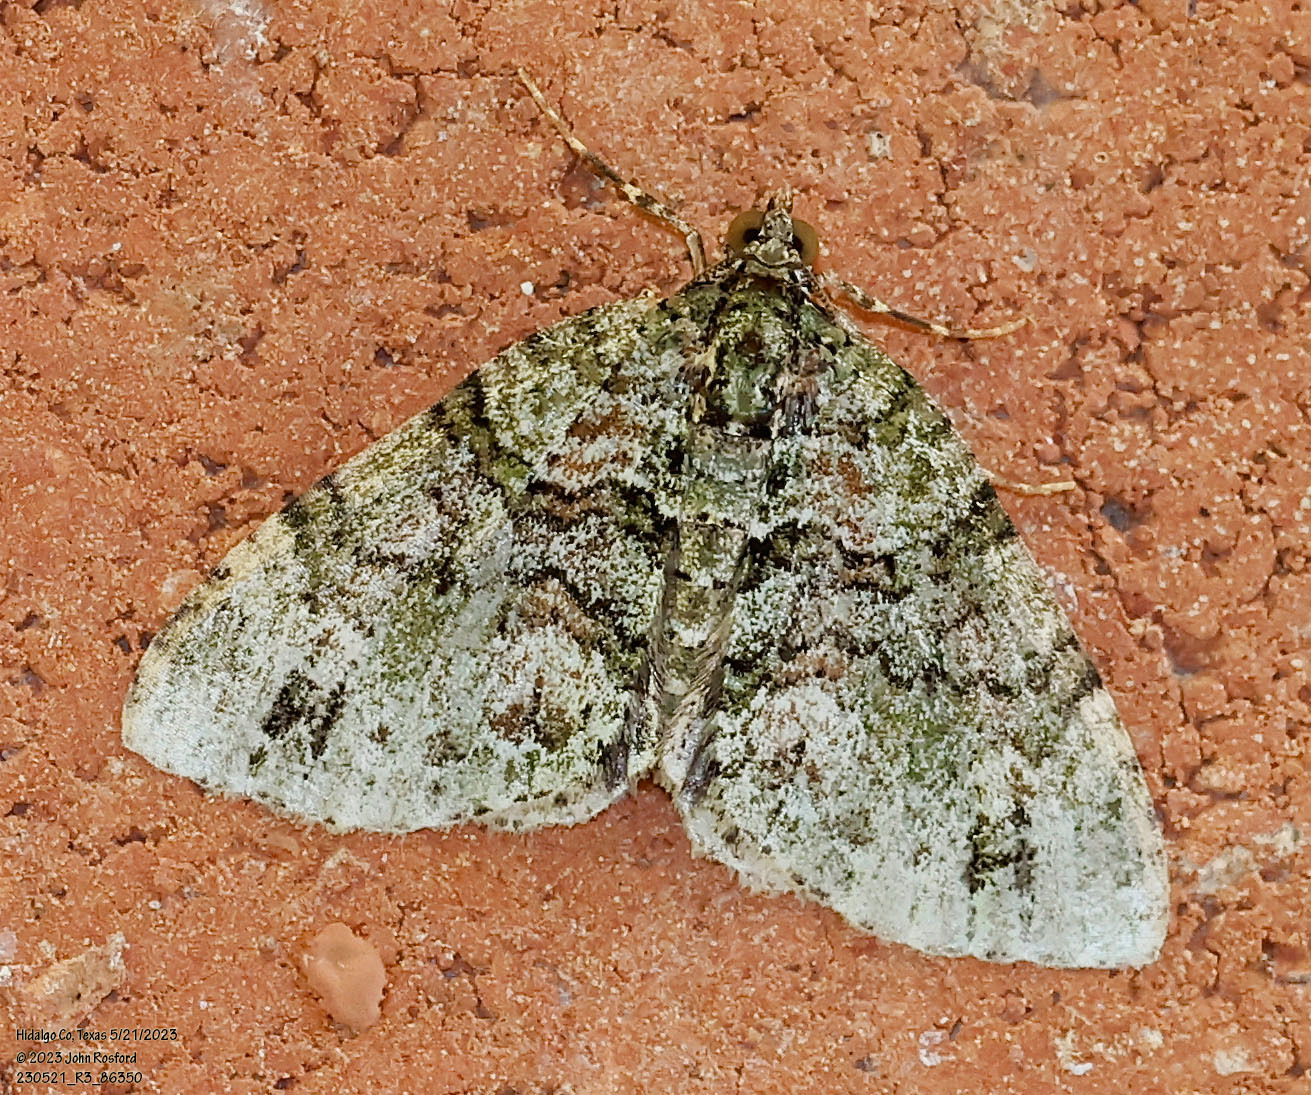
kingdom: Animalia
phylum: Arthropoda
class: Insecta
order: Lepidoptera
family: Geometridae
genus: Hammaptera
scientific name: Hammaptera parinotata
